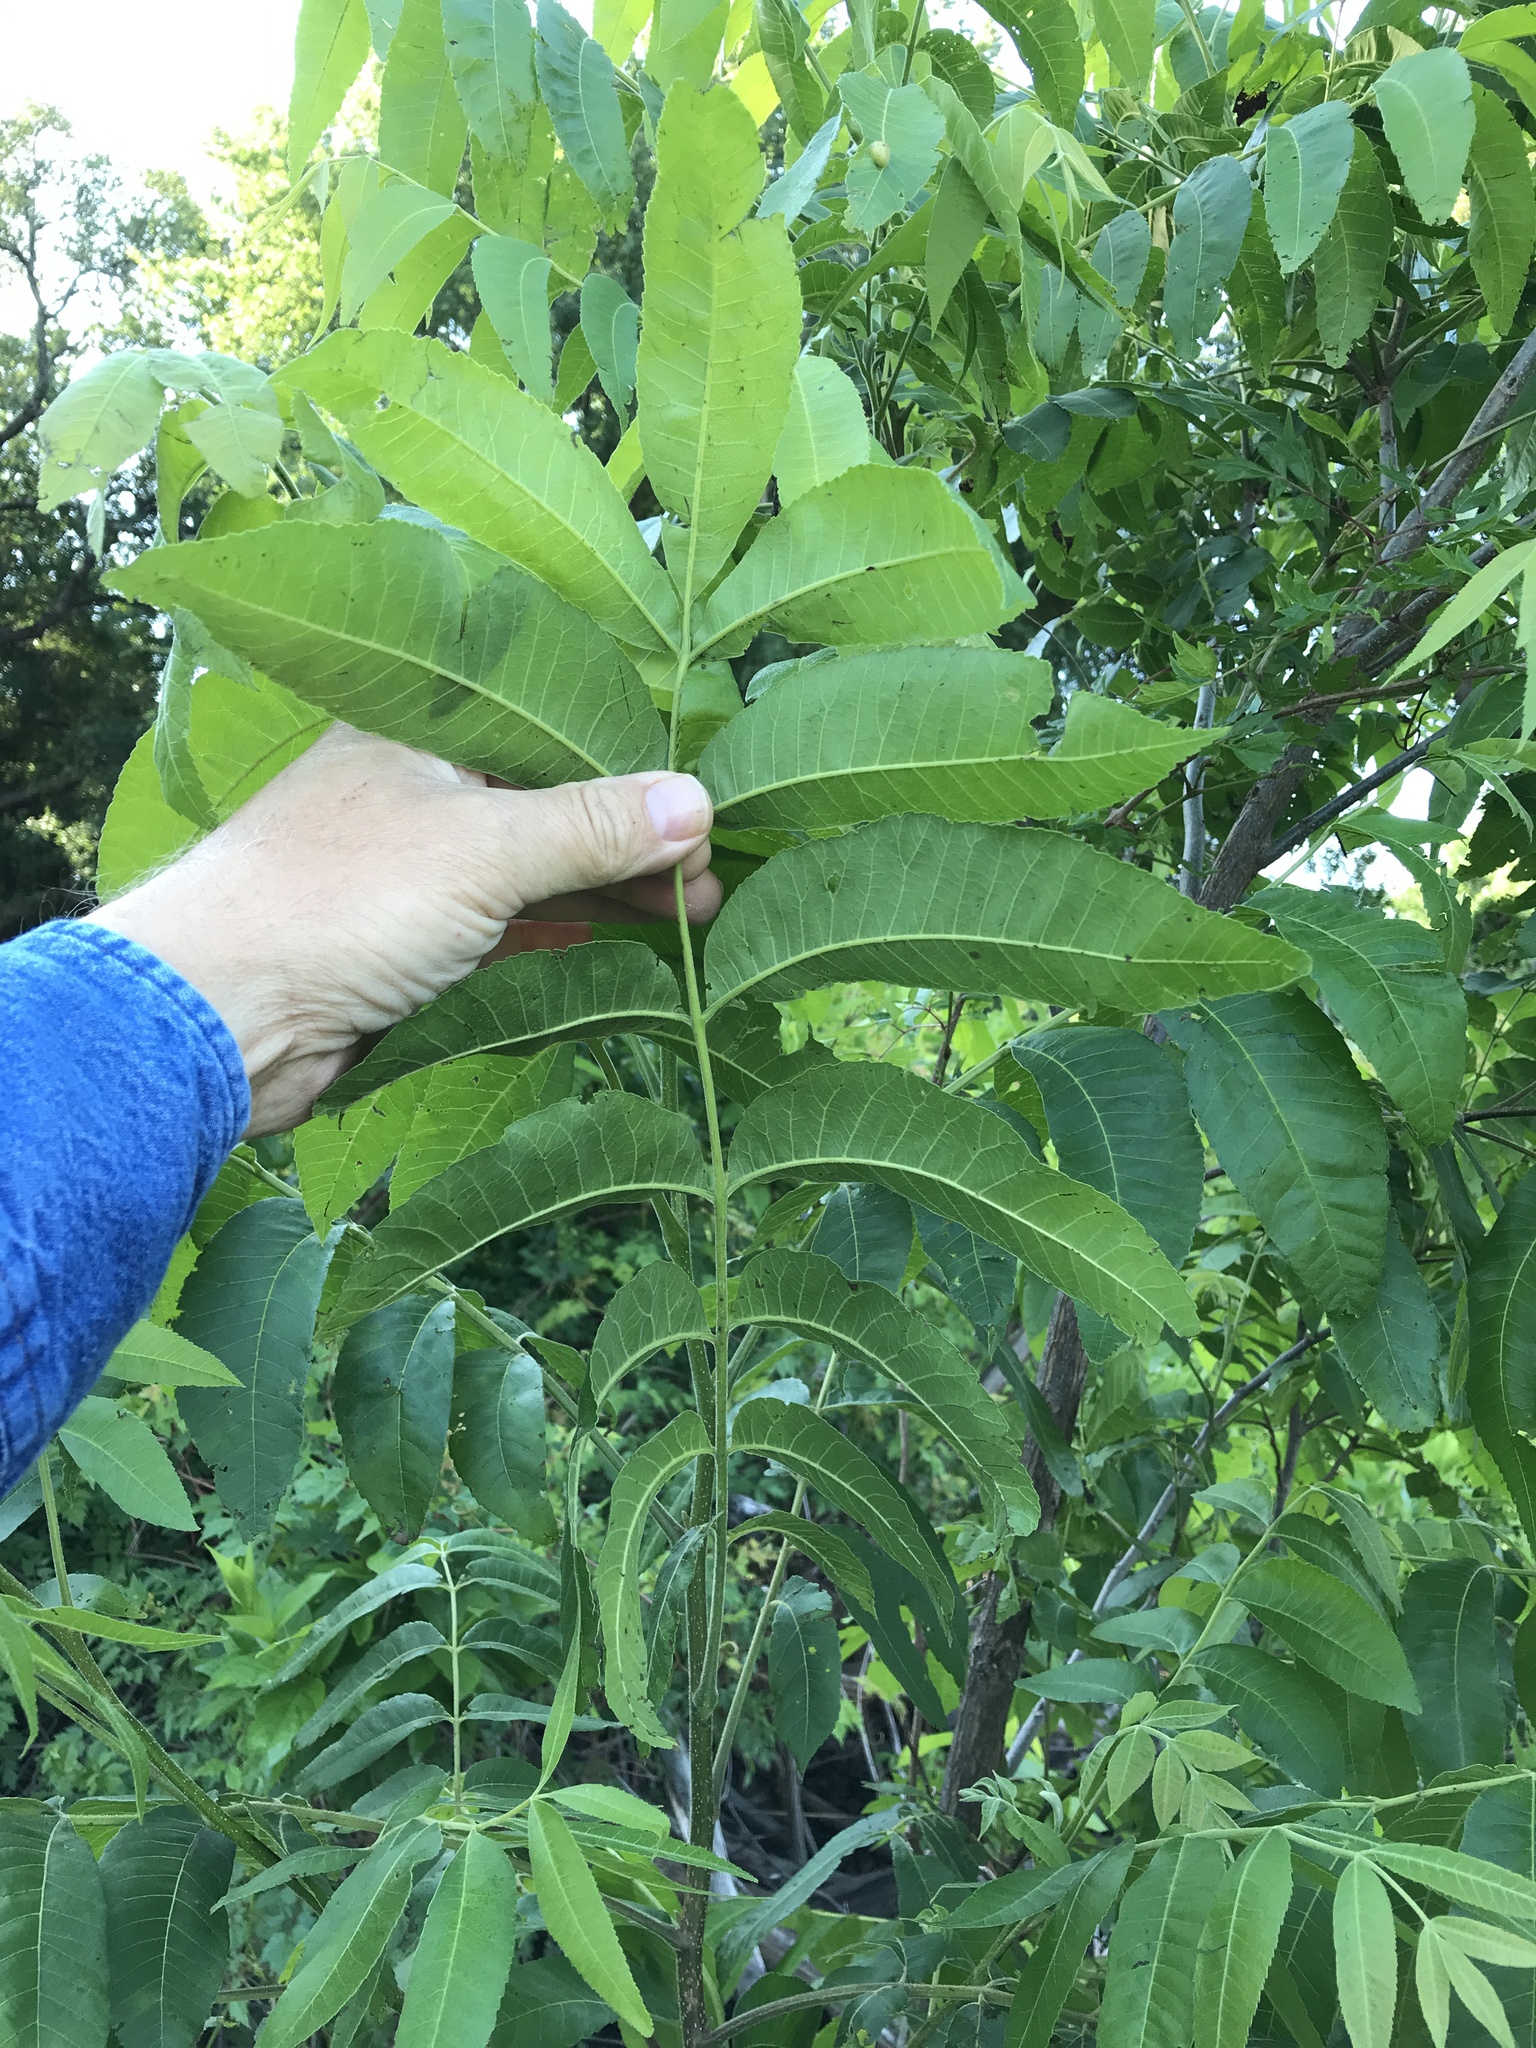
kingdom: Plantae
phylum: Tracheophyta
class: Magnoliopsida
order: Fagales
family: Juglandaceae
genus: Carya
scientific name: Carya illinoinensis
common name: Pecan
